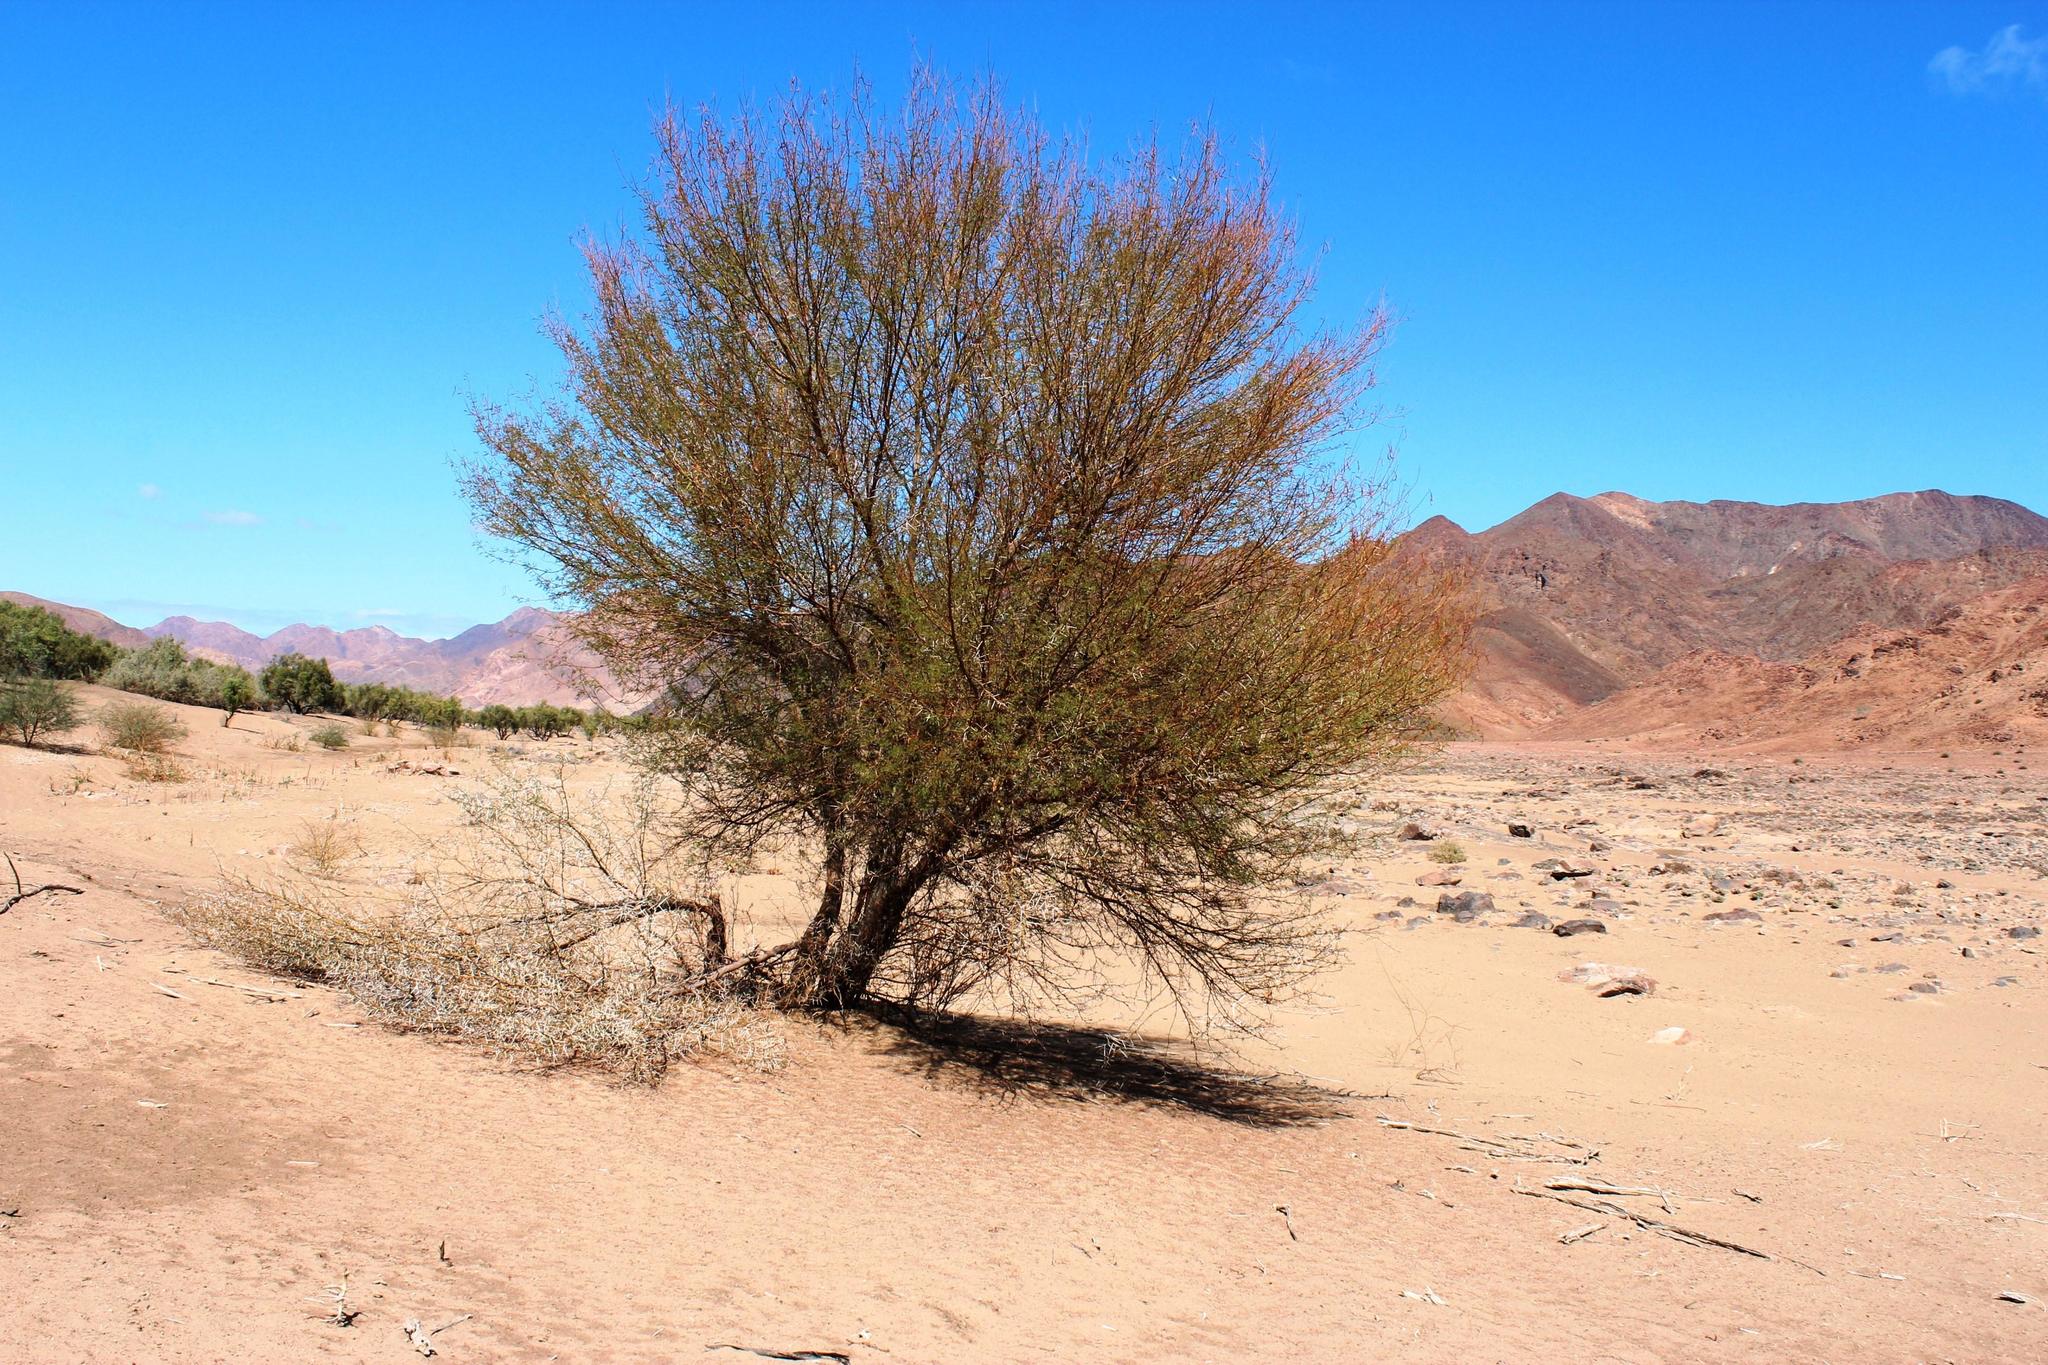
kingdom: Plantae
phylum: Tracheophyta
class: Magnoliopsida
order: Fabales
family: Fabaceae
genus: Vachellia
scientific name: Vachellia karroo
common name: Sweet thorn
